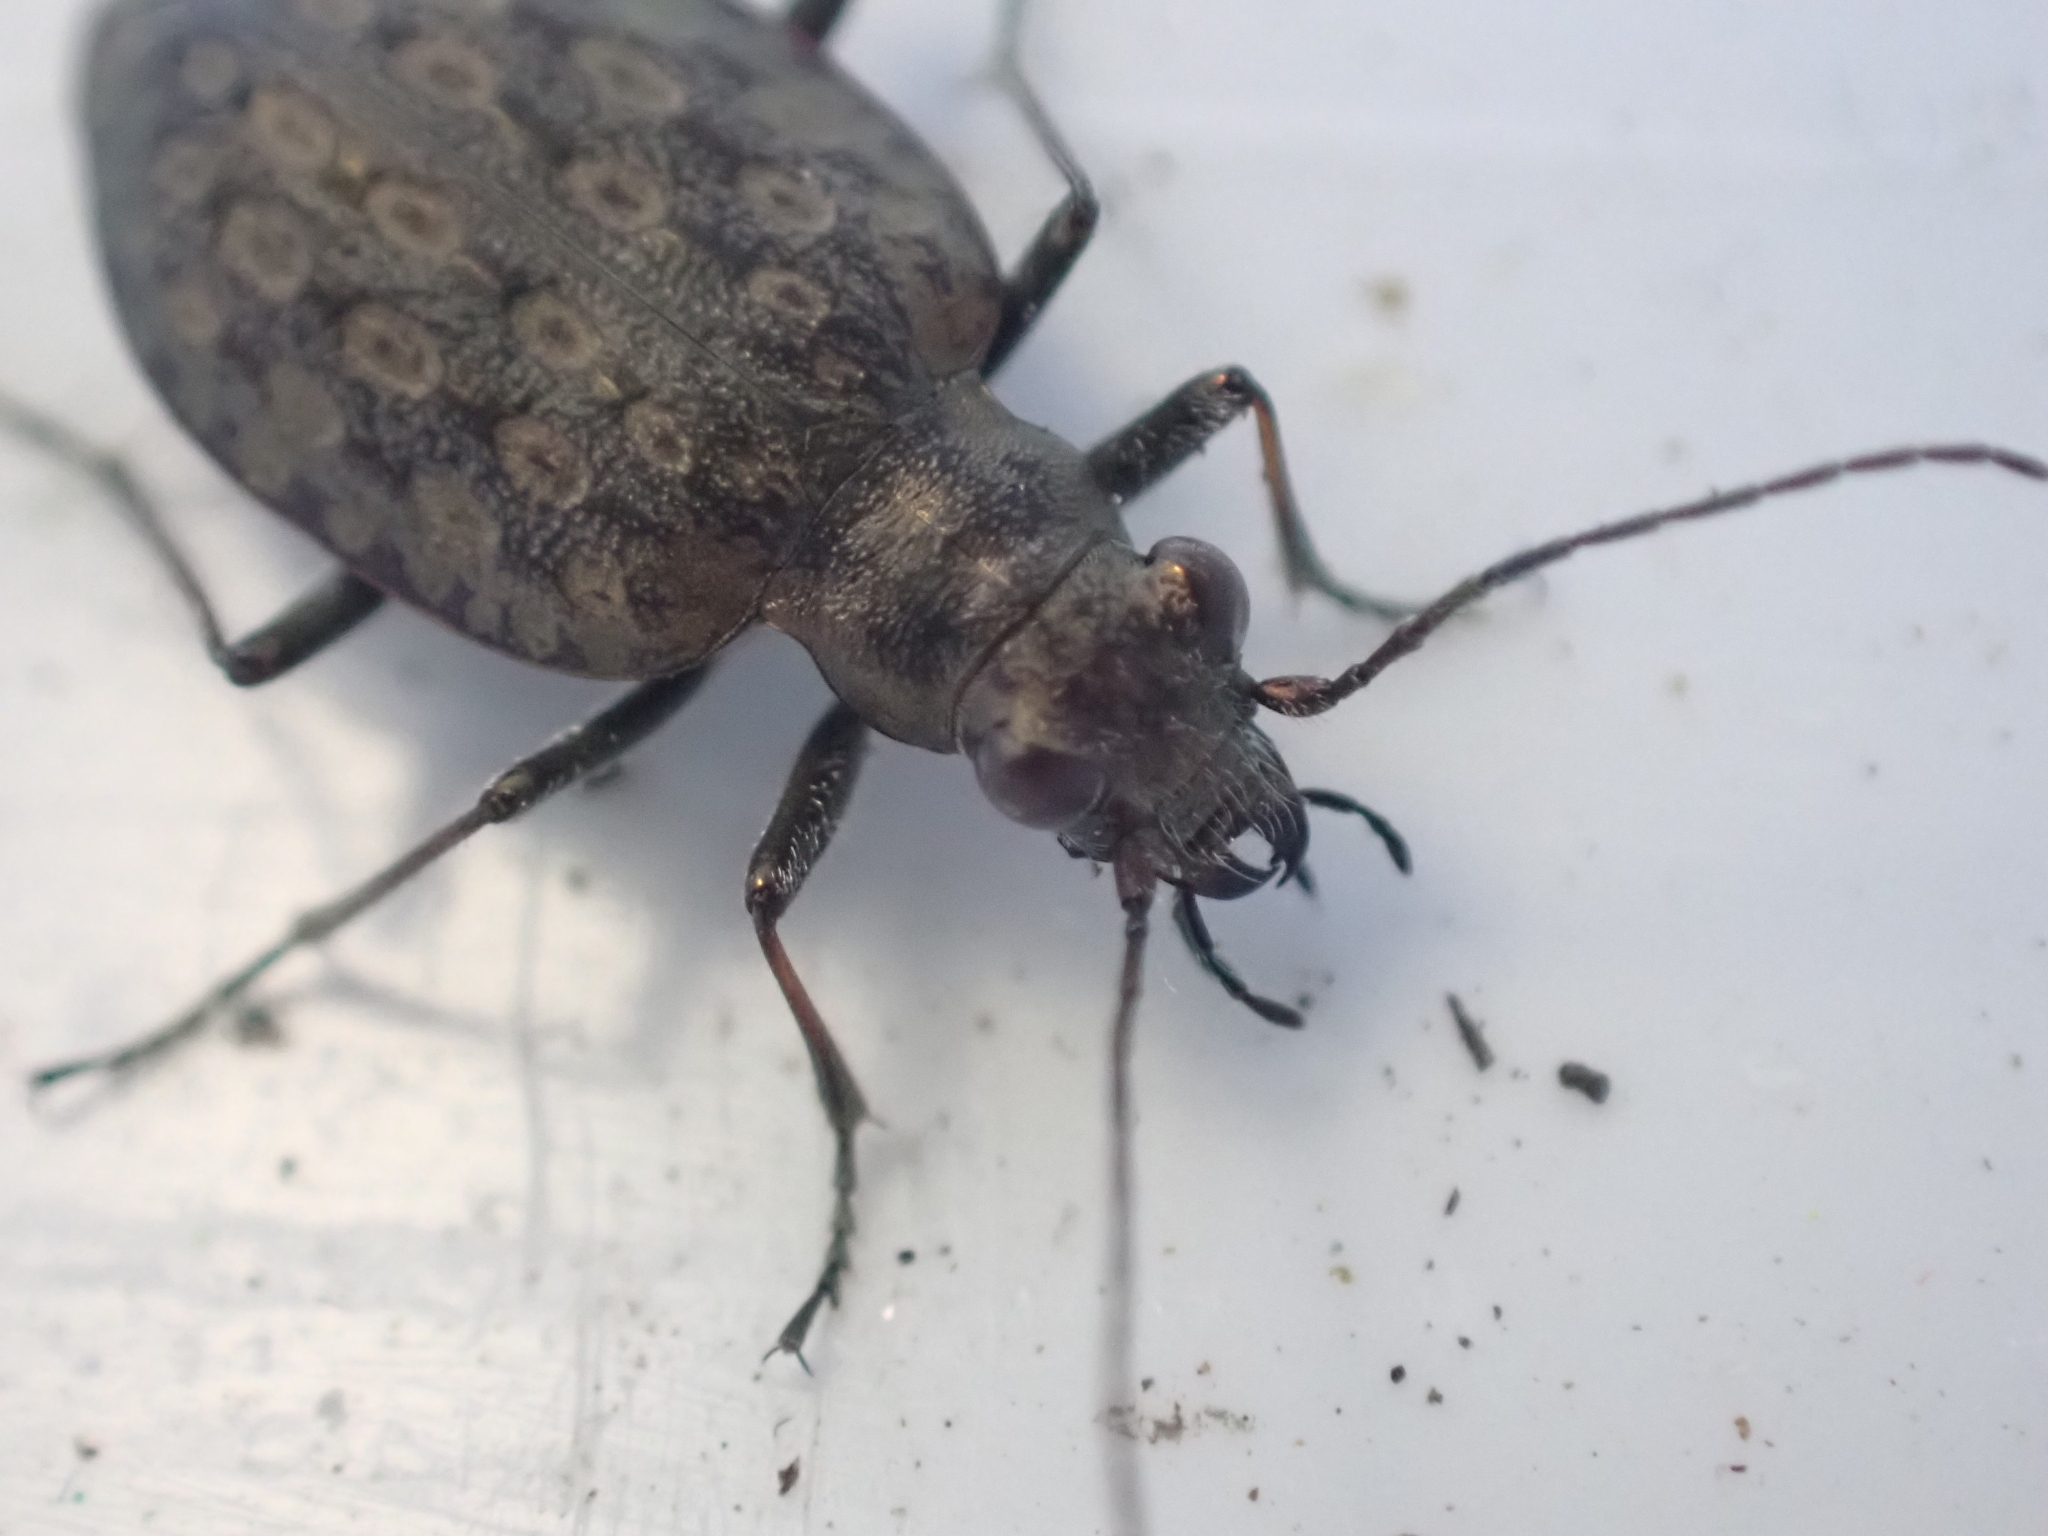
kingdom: Animalia
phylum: Arthropoda
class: Insecta
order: Coleoptera
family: Carabidae
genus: Opisthius
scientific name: Opisthius richardsoni
